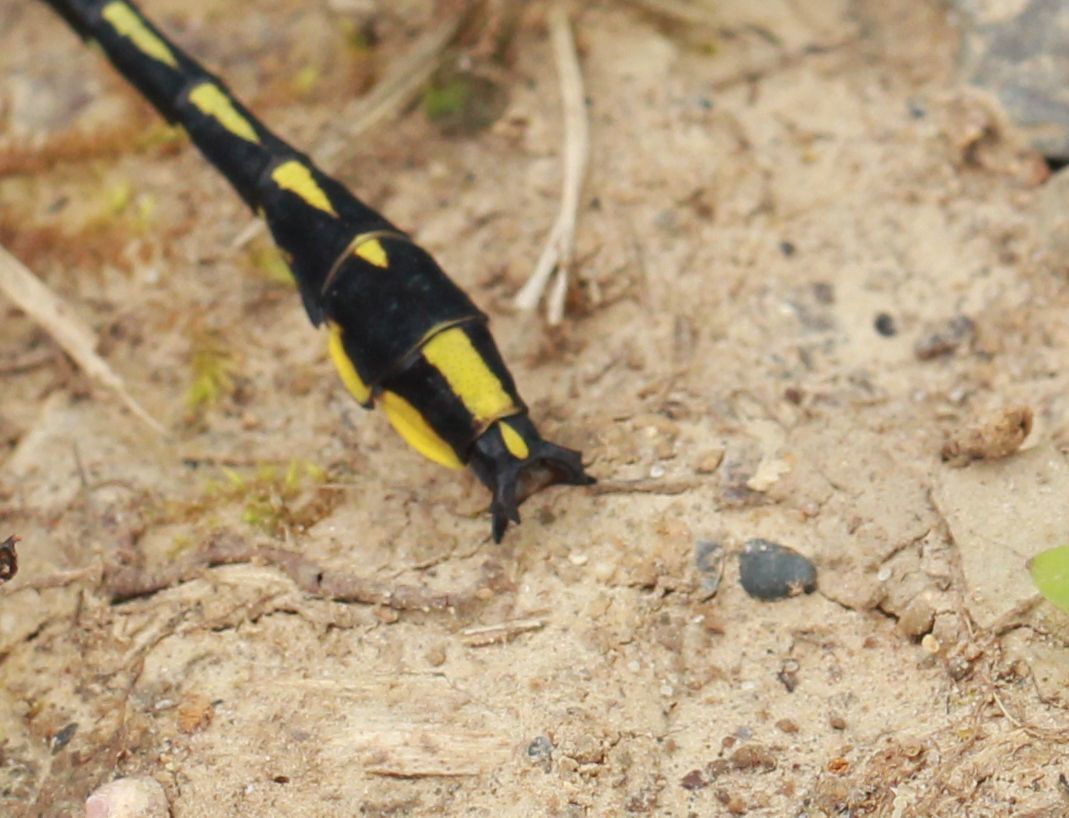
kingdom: Animalia
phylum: Arthropoda
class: Insecta
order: Odonata
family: Gomphidae
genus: Phanogomphus
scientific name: Phanogomphus graslinellus
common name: Pronghorn clubtail
